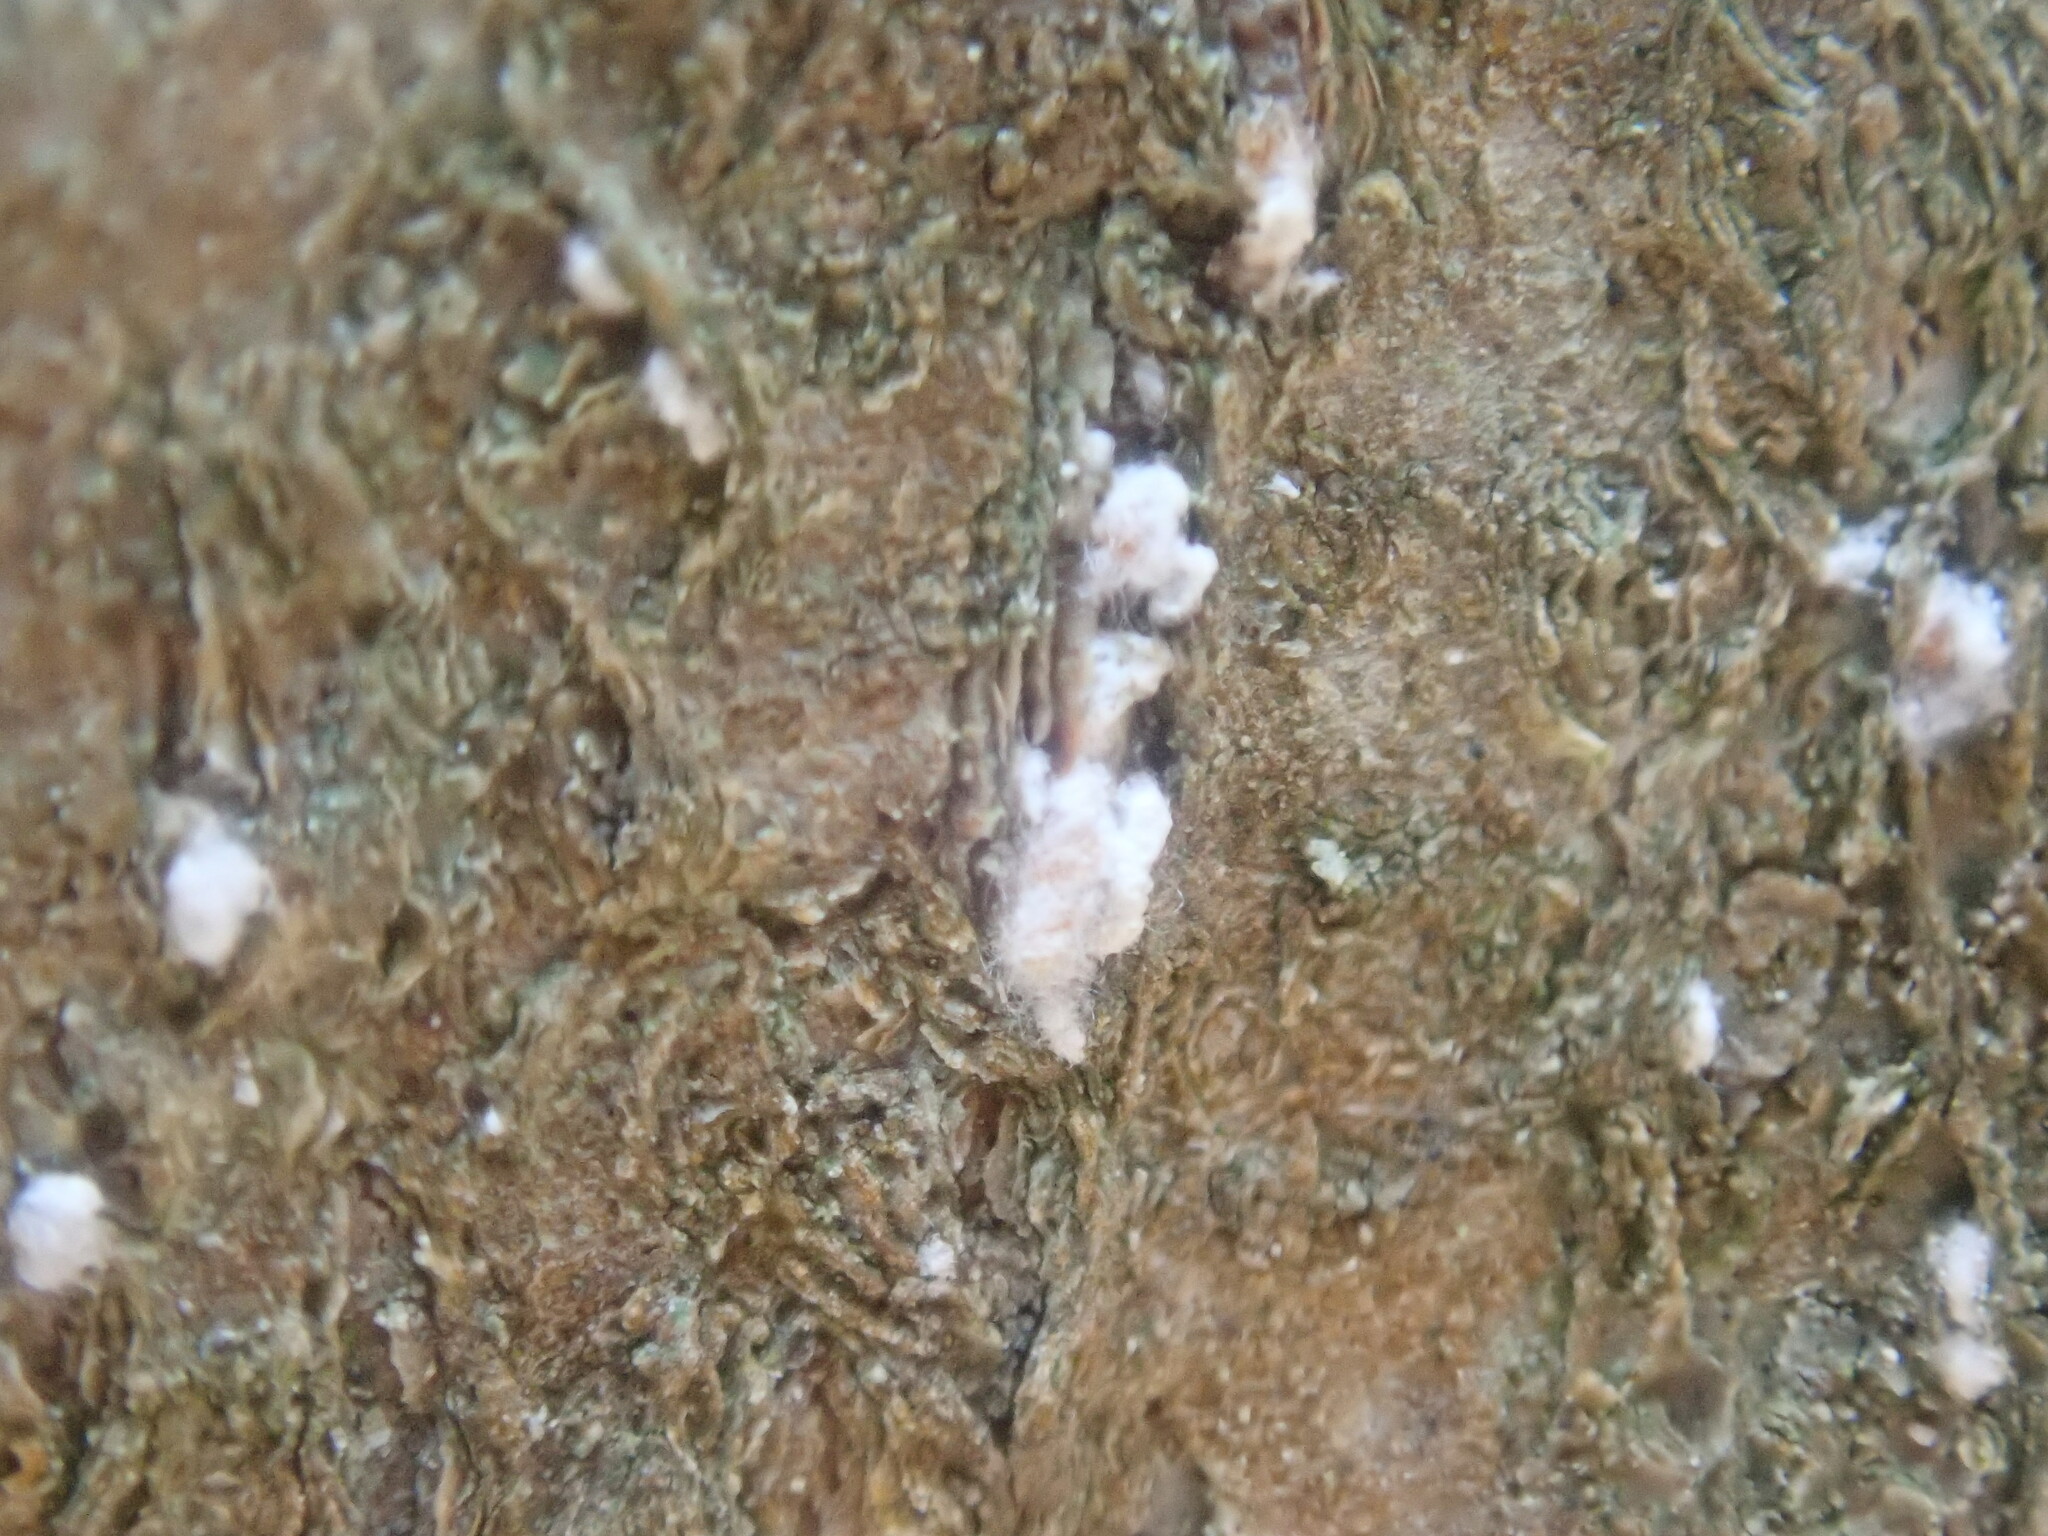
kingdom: Animalia
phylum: Arthropoda
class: Insecta
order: Hemiptera
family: Eriococcidae
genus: Cryptococcus
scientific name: Cryptococcus fagisuga
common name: Beech scale
